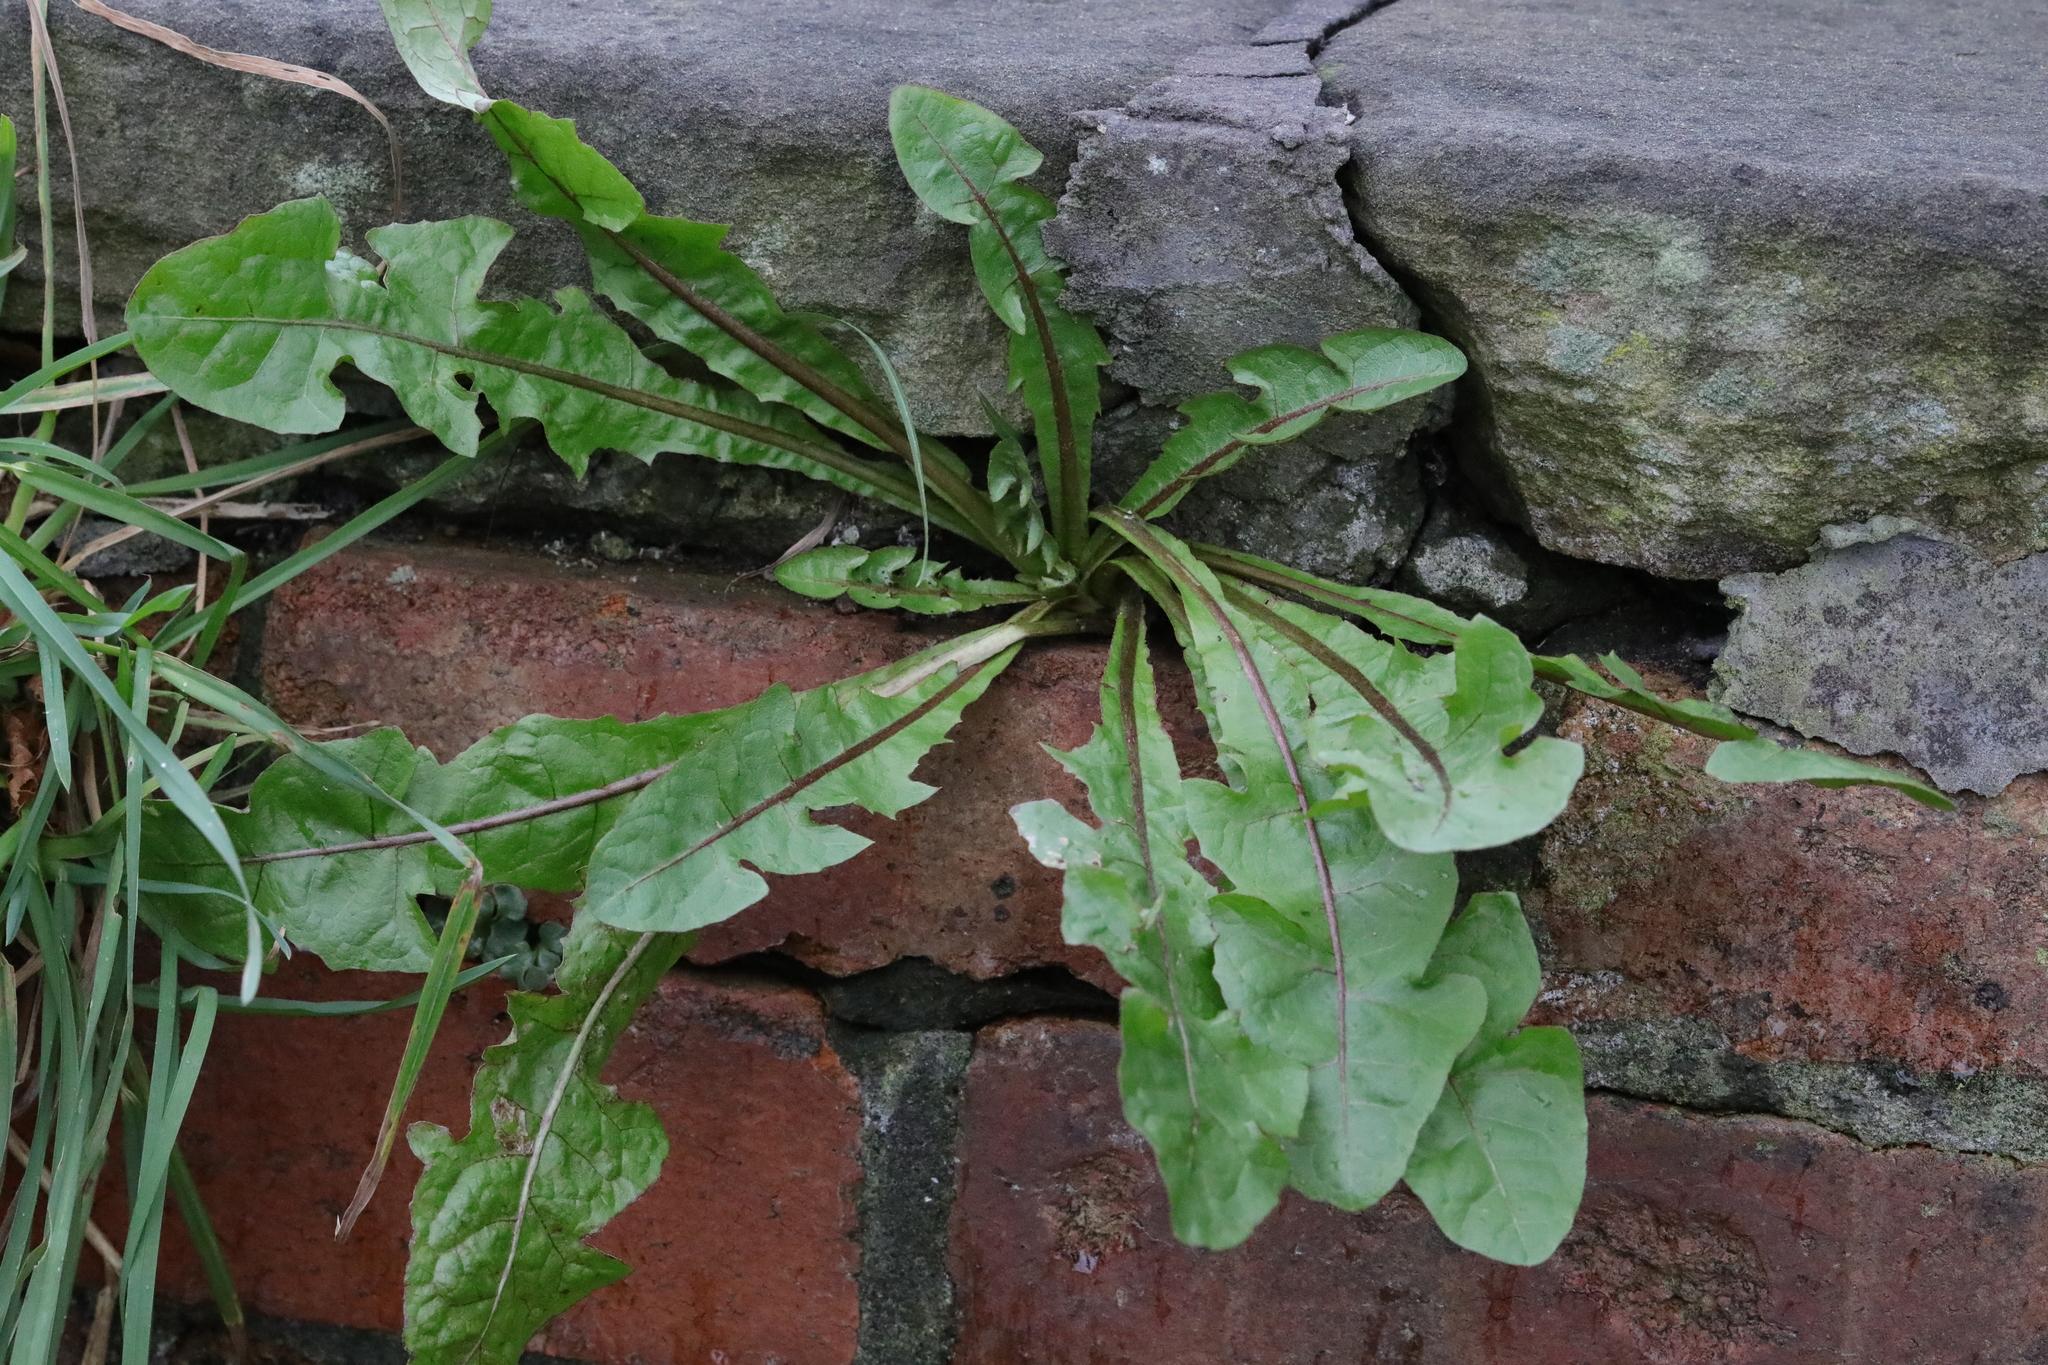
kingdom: Plantae
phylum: Tracheophyta
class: Magnoliopsida
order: Asterales
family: Asteraceae
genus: Taraxacum
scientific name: Taraxacum officinale
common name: Common dandelion
